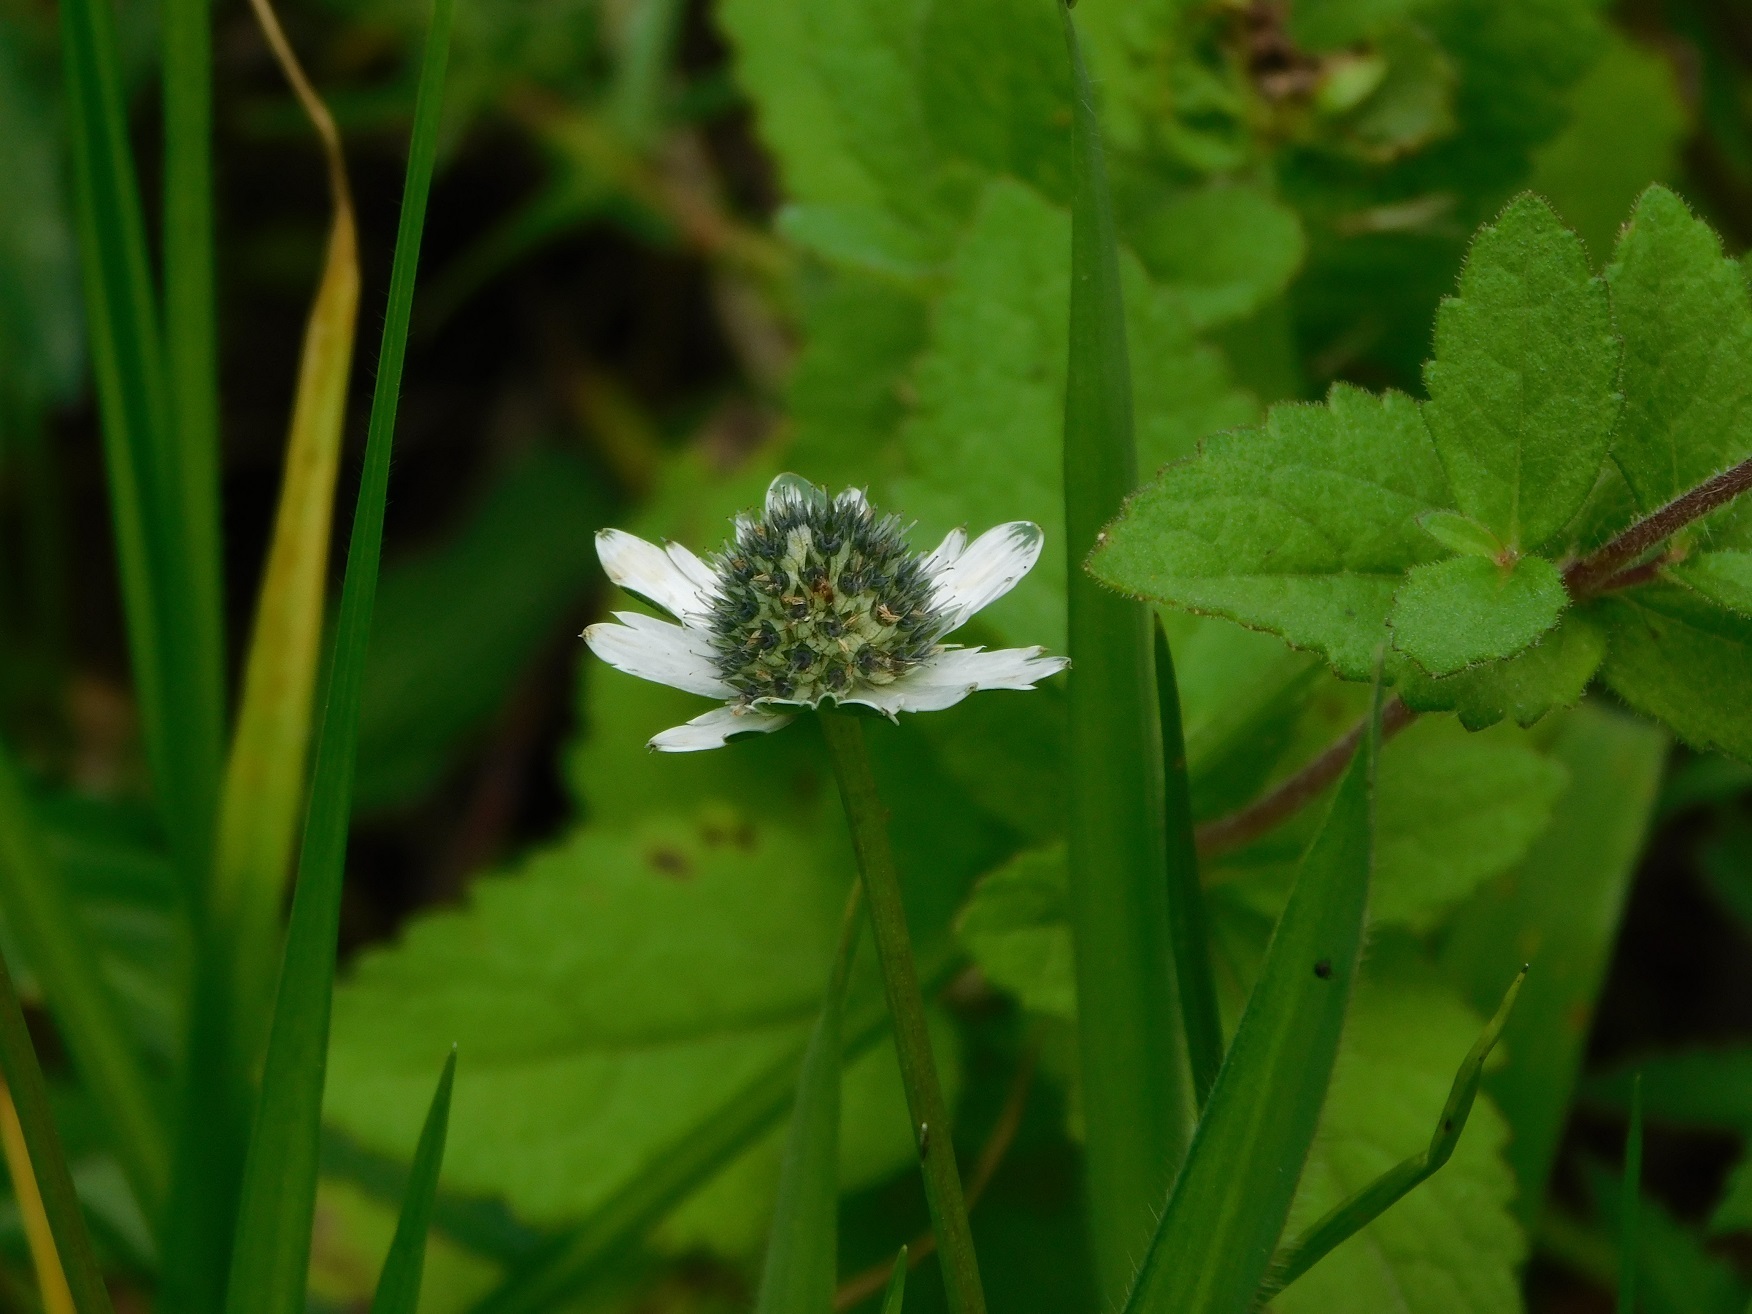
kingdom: Plantae
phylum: Tracheophyta
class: Magnoliopsida
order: Apiales
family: Apiaceae
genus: Eryngium
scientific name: Eryngium scaposum
